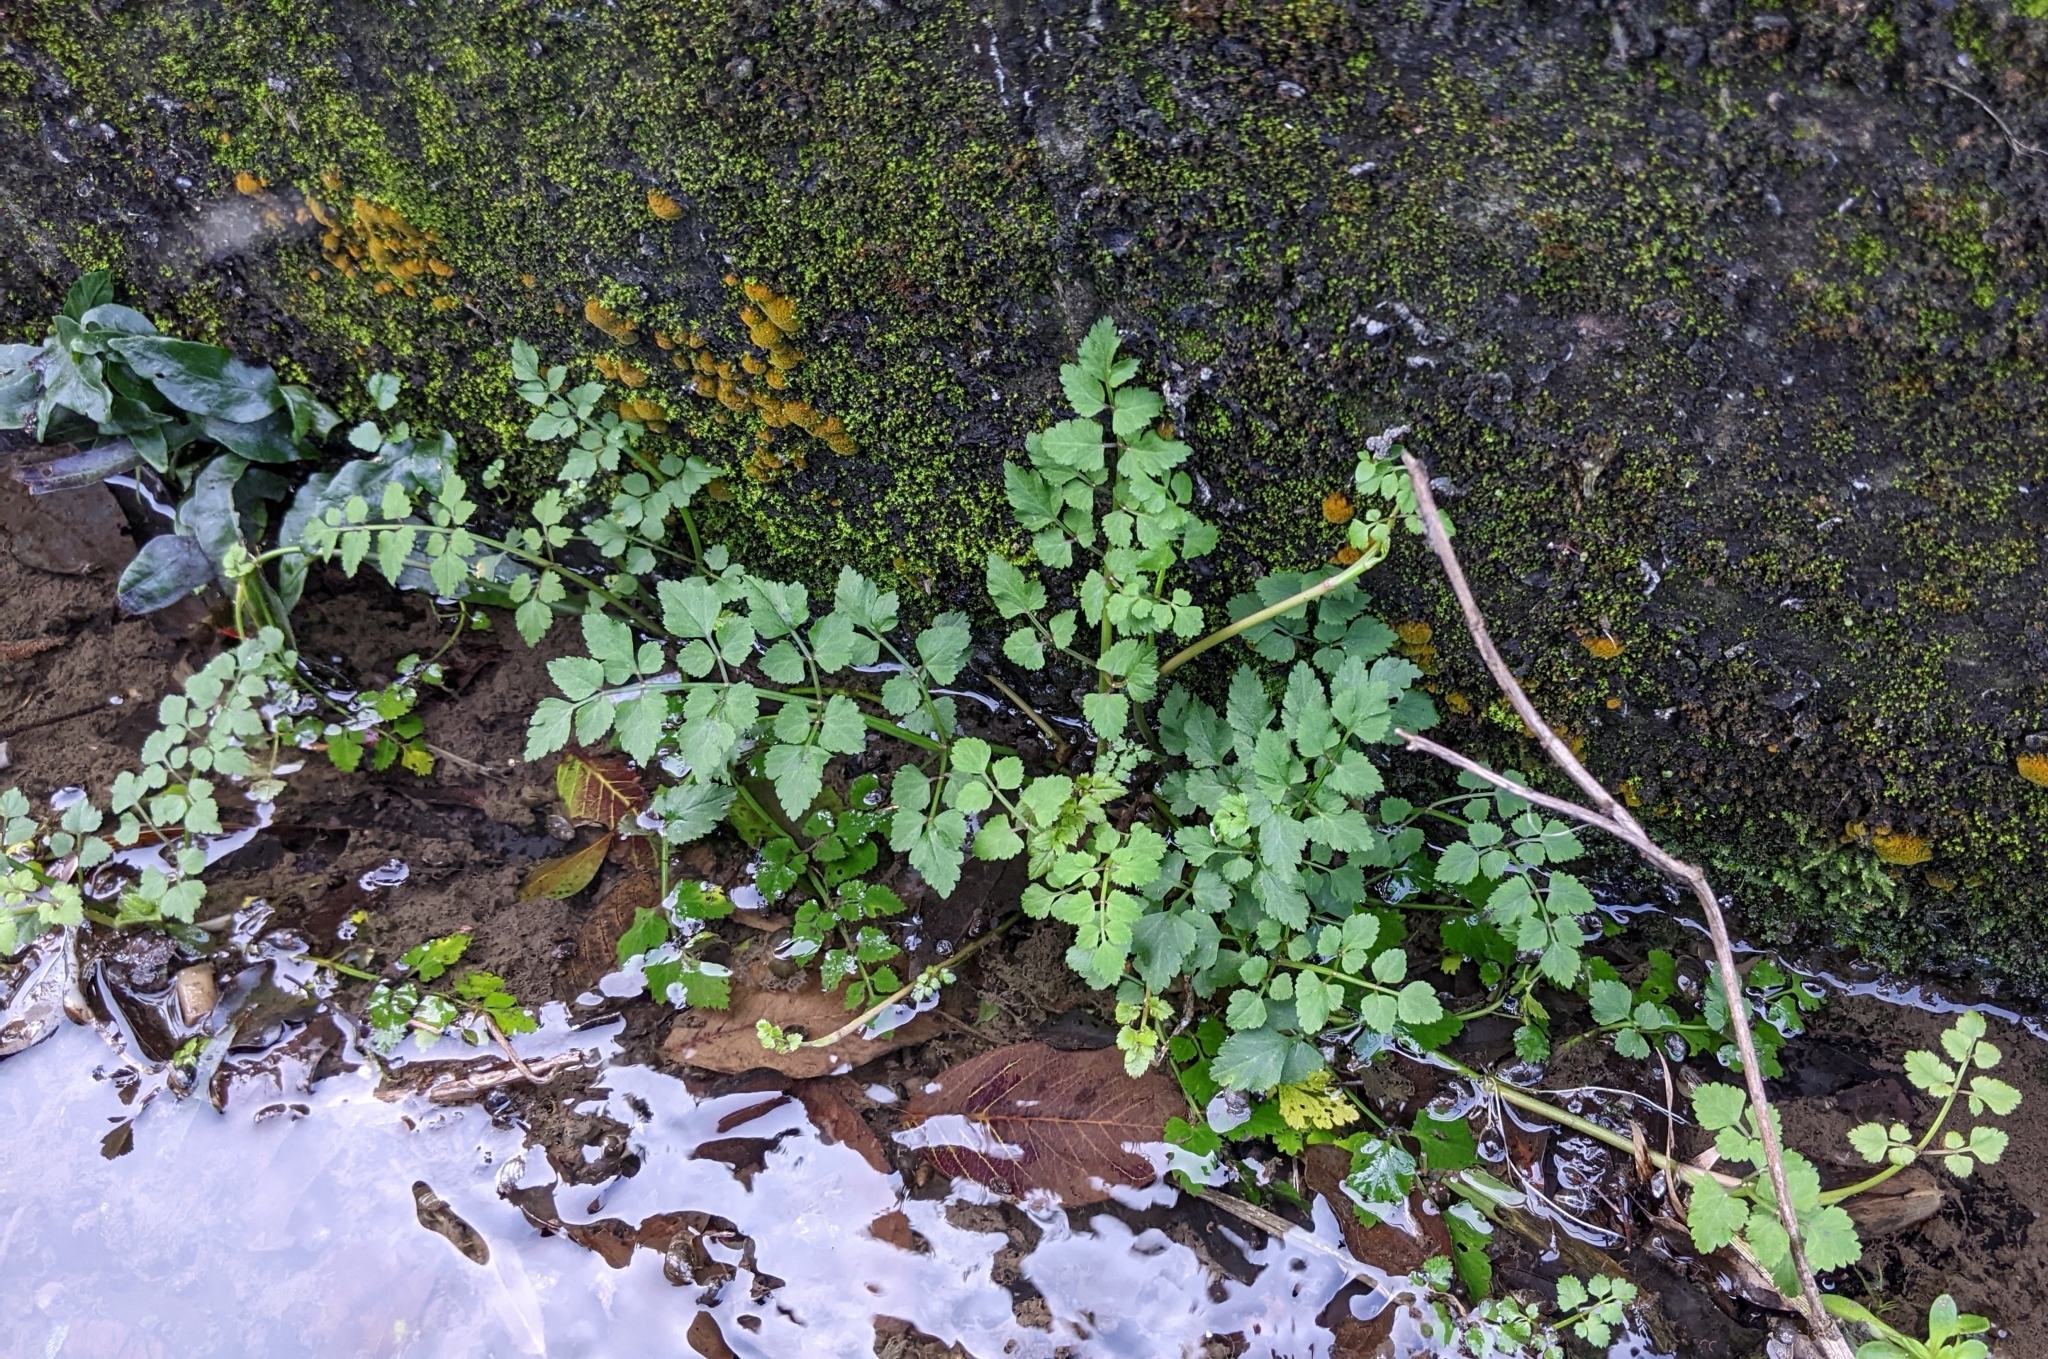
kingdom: Plantae
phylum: Tracheophyta
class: Magnoliopsida
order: Apiales
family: Apiaceae
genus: Oenanthe
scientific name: Oenanthe javanica
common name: Java water-dropwort
